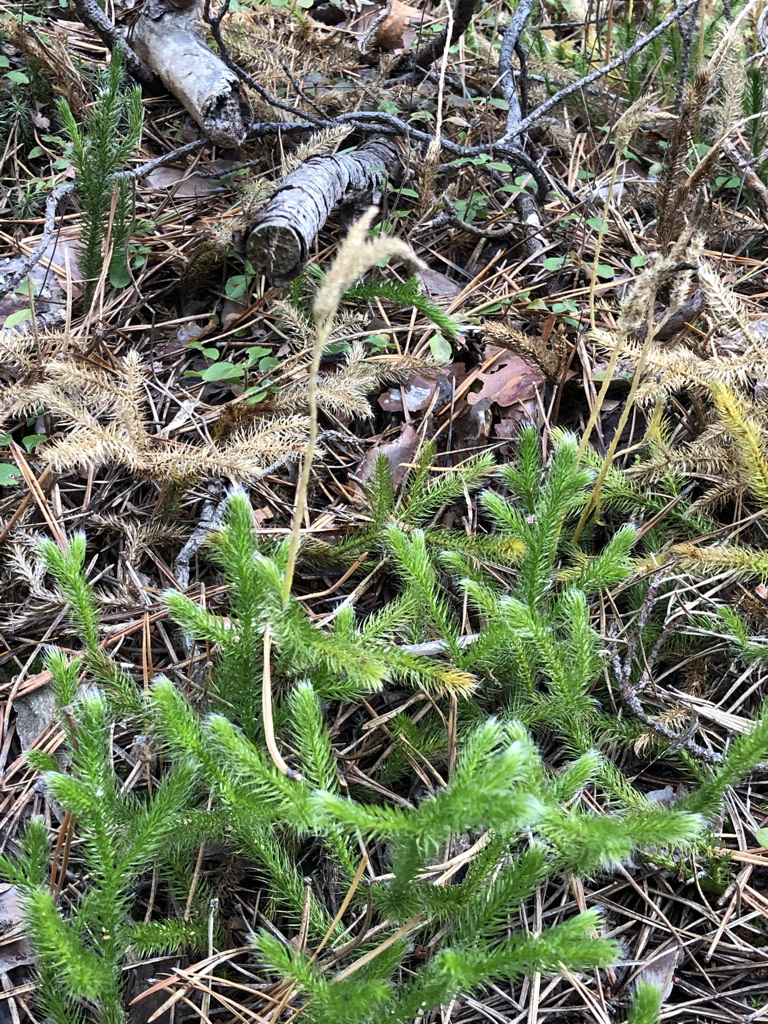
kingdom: Plantae
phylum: Tracheophyta
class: Lycopodiopsida
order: Lycopodiales
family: Lycopodiaceae
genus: Lycopodium
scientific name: Lycopodium clavatum
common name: Stag's-horn clubmoss
